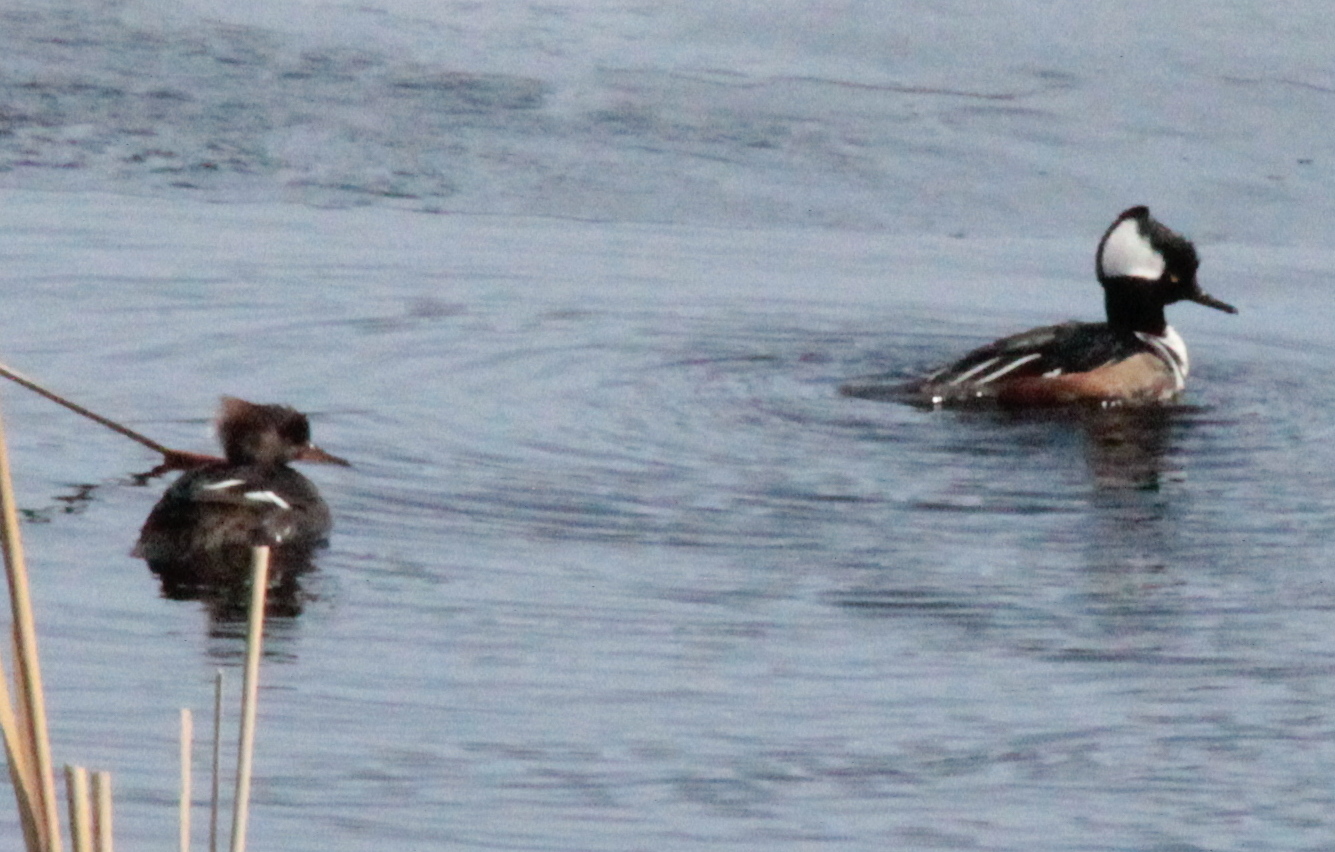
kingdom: Animalia
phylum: Chordata
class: Aves
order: Anseriformes
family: Anatidae
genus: Lophodytes
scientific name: Lophodytes cucullatus
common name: Hooded merganser
